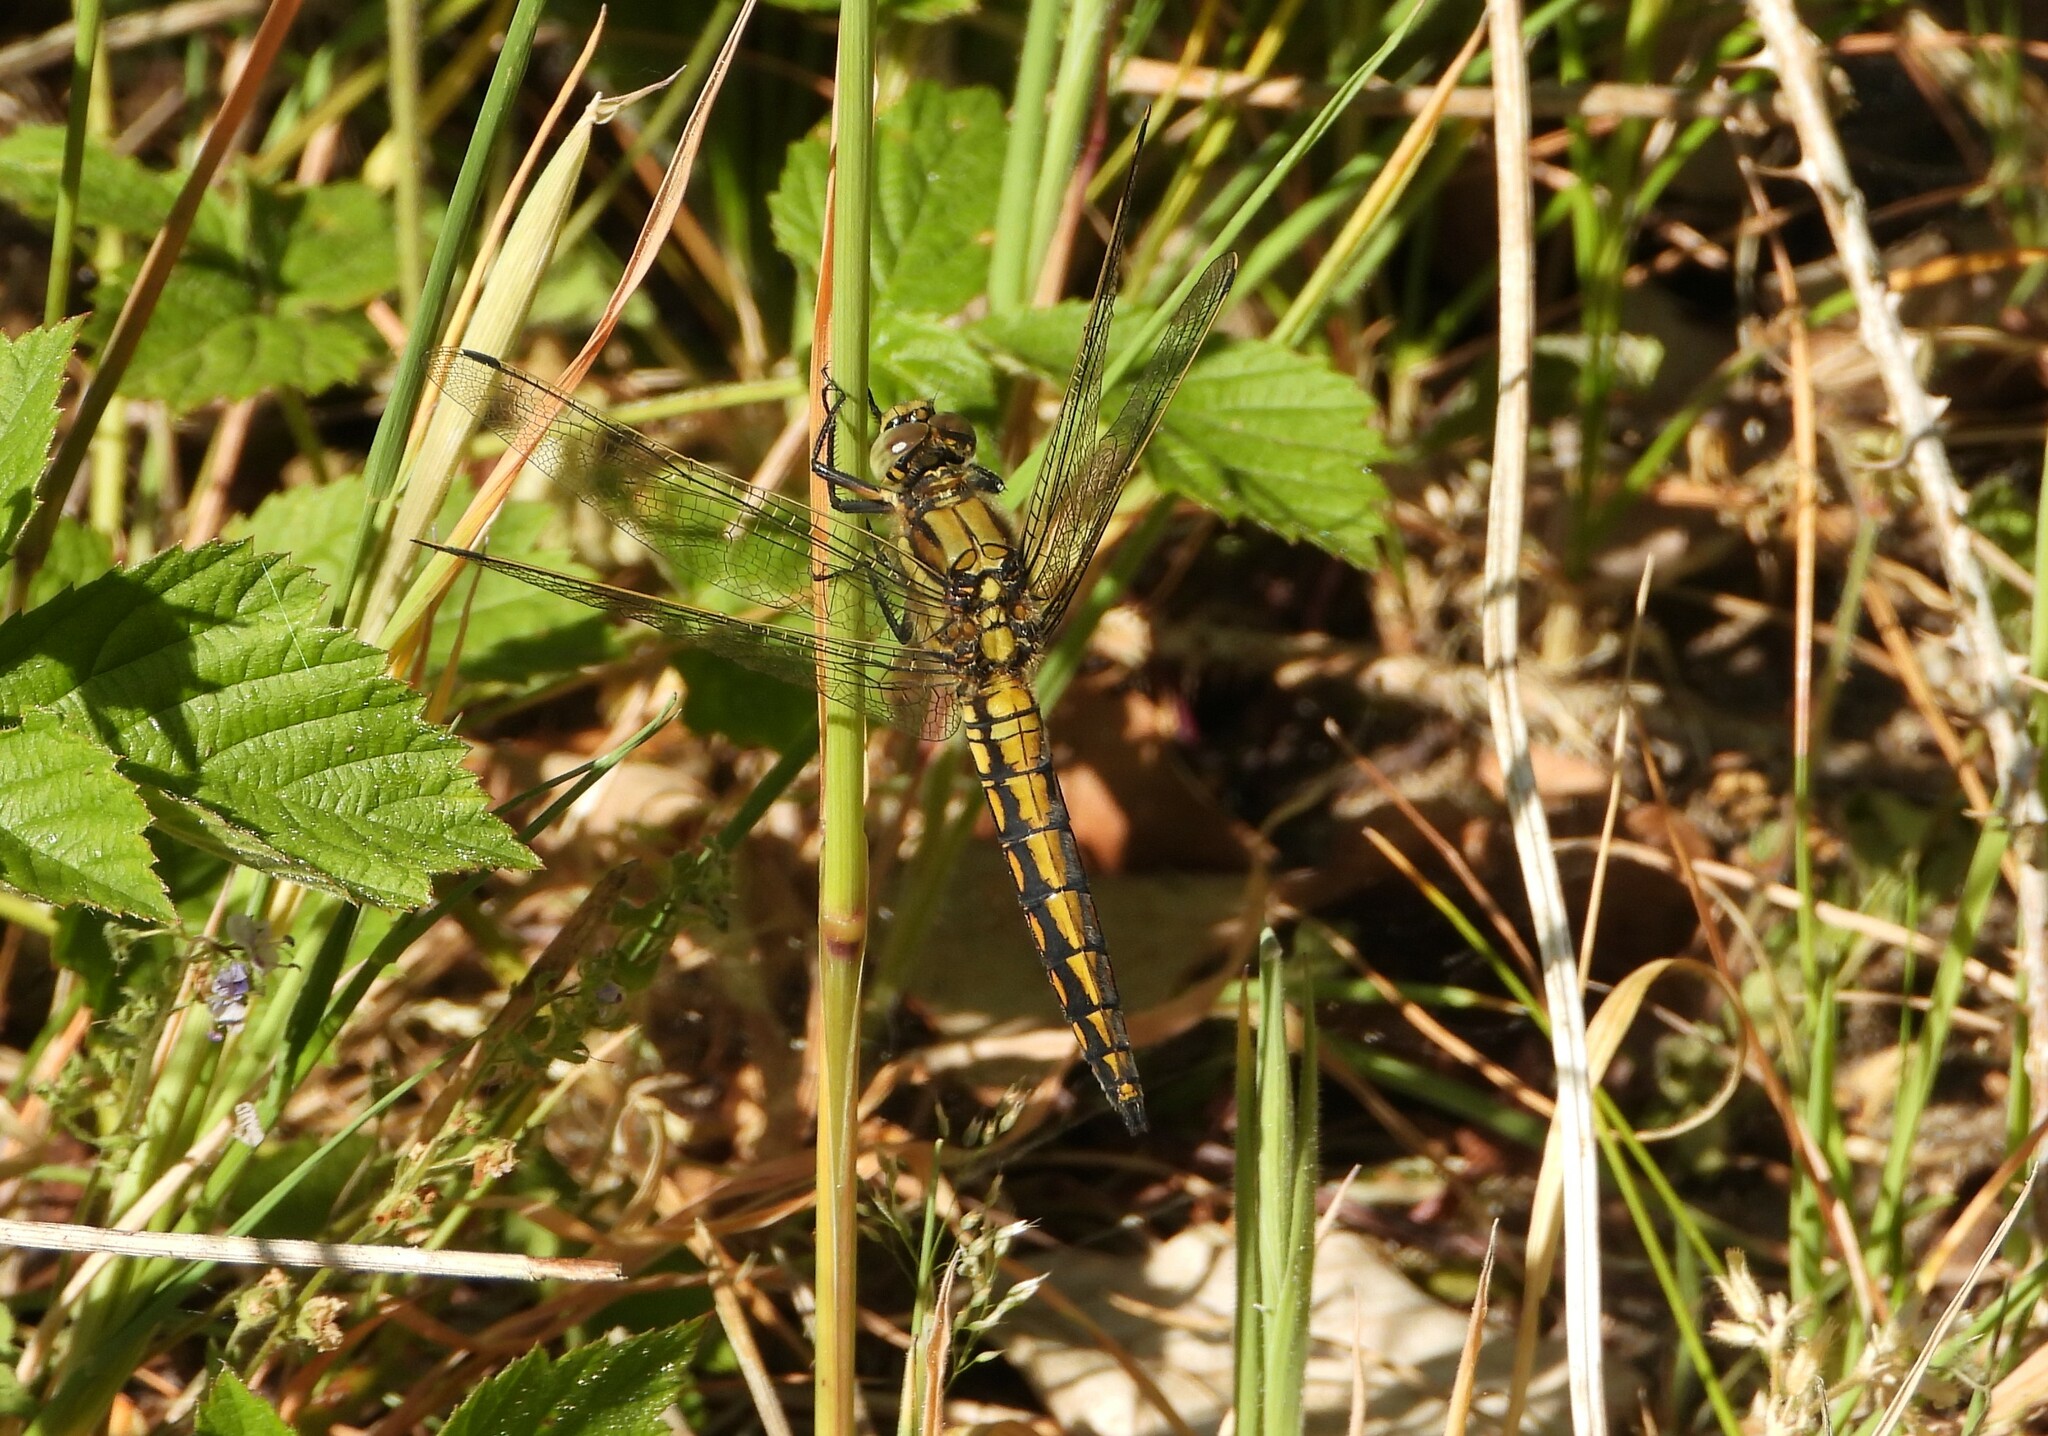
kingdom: Animalia
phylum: Arthropoda
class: Insecta
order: Odonata
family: Libellulidae
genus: Orthetrum
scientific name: Orthetrum cancellatum
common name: Black-tailed skimmer
